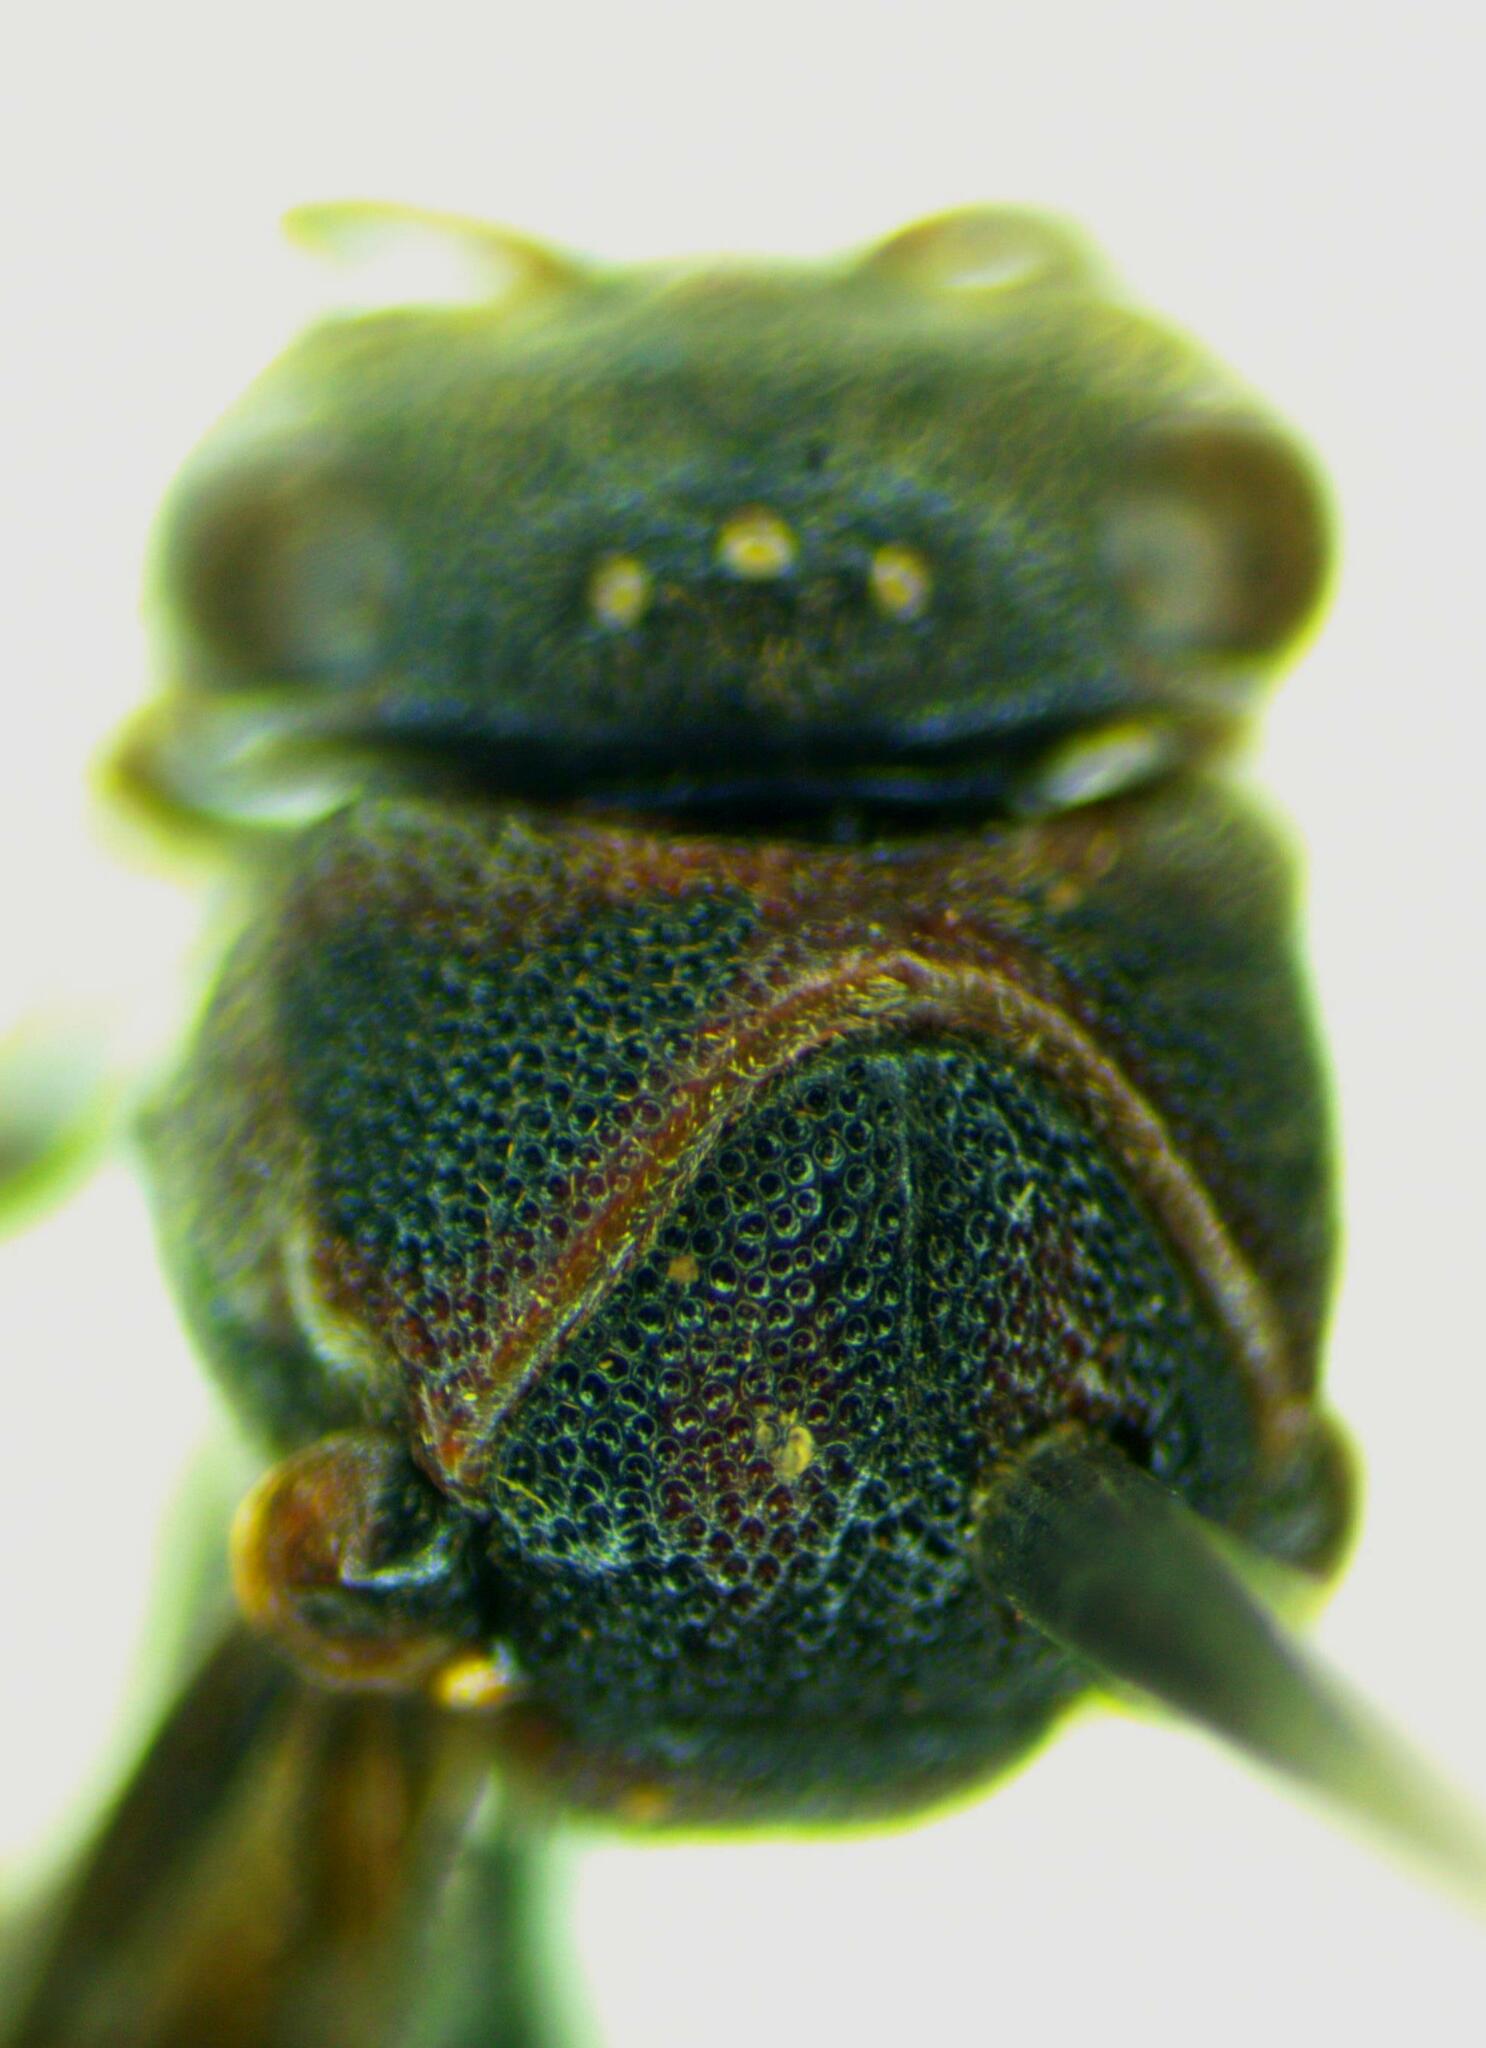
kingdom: Animalia
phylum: Arthropoda
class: Insecta
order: Hymenoptera
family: Eumenidae
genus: Omicron
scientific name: Omicron tuberculatum
